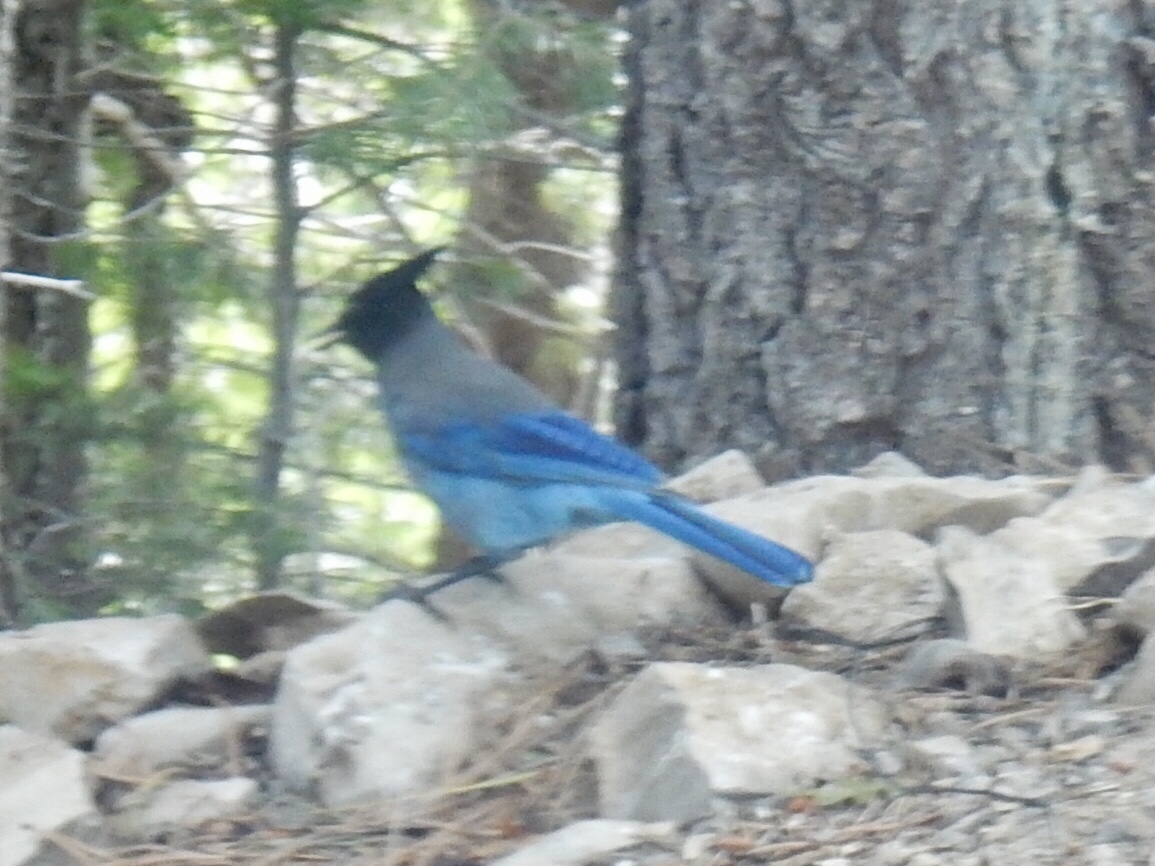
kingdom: Animalia
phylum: Chordata
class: Aves
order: Passeriformes
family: Corvidae
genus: Cyanocitta
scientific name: Cyanocitta stelleri
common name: Steller's jay
